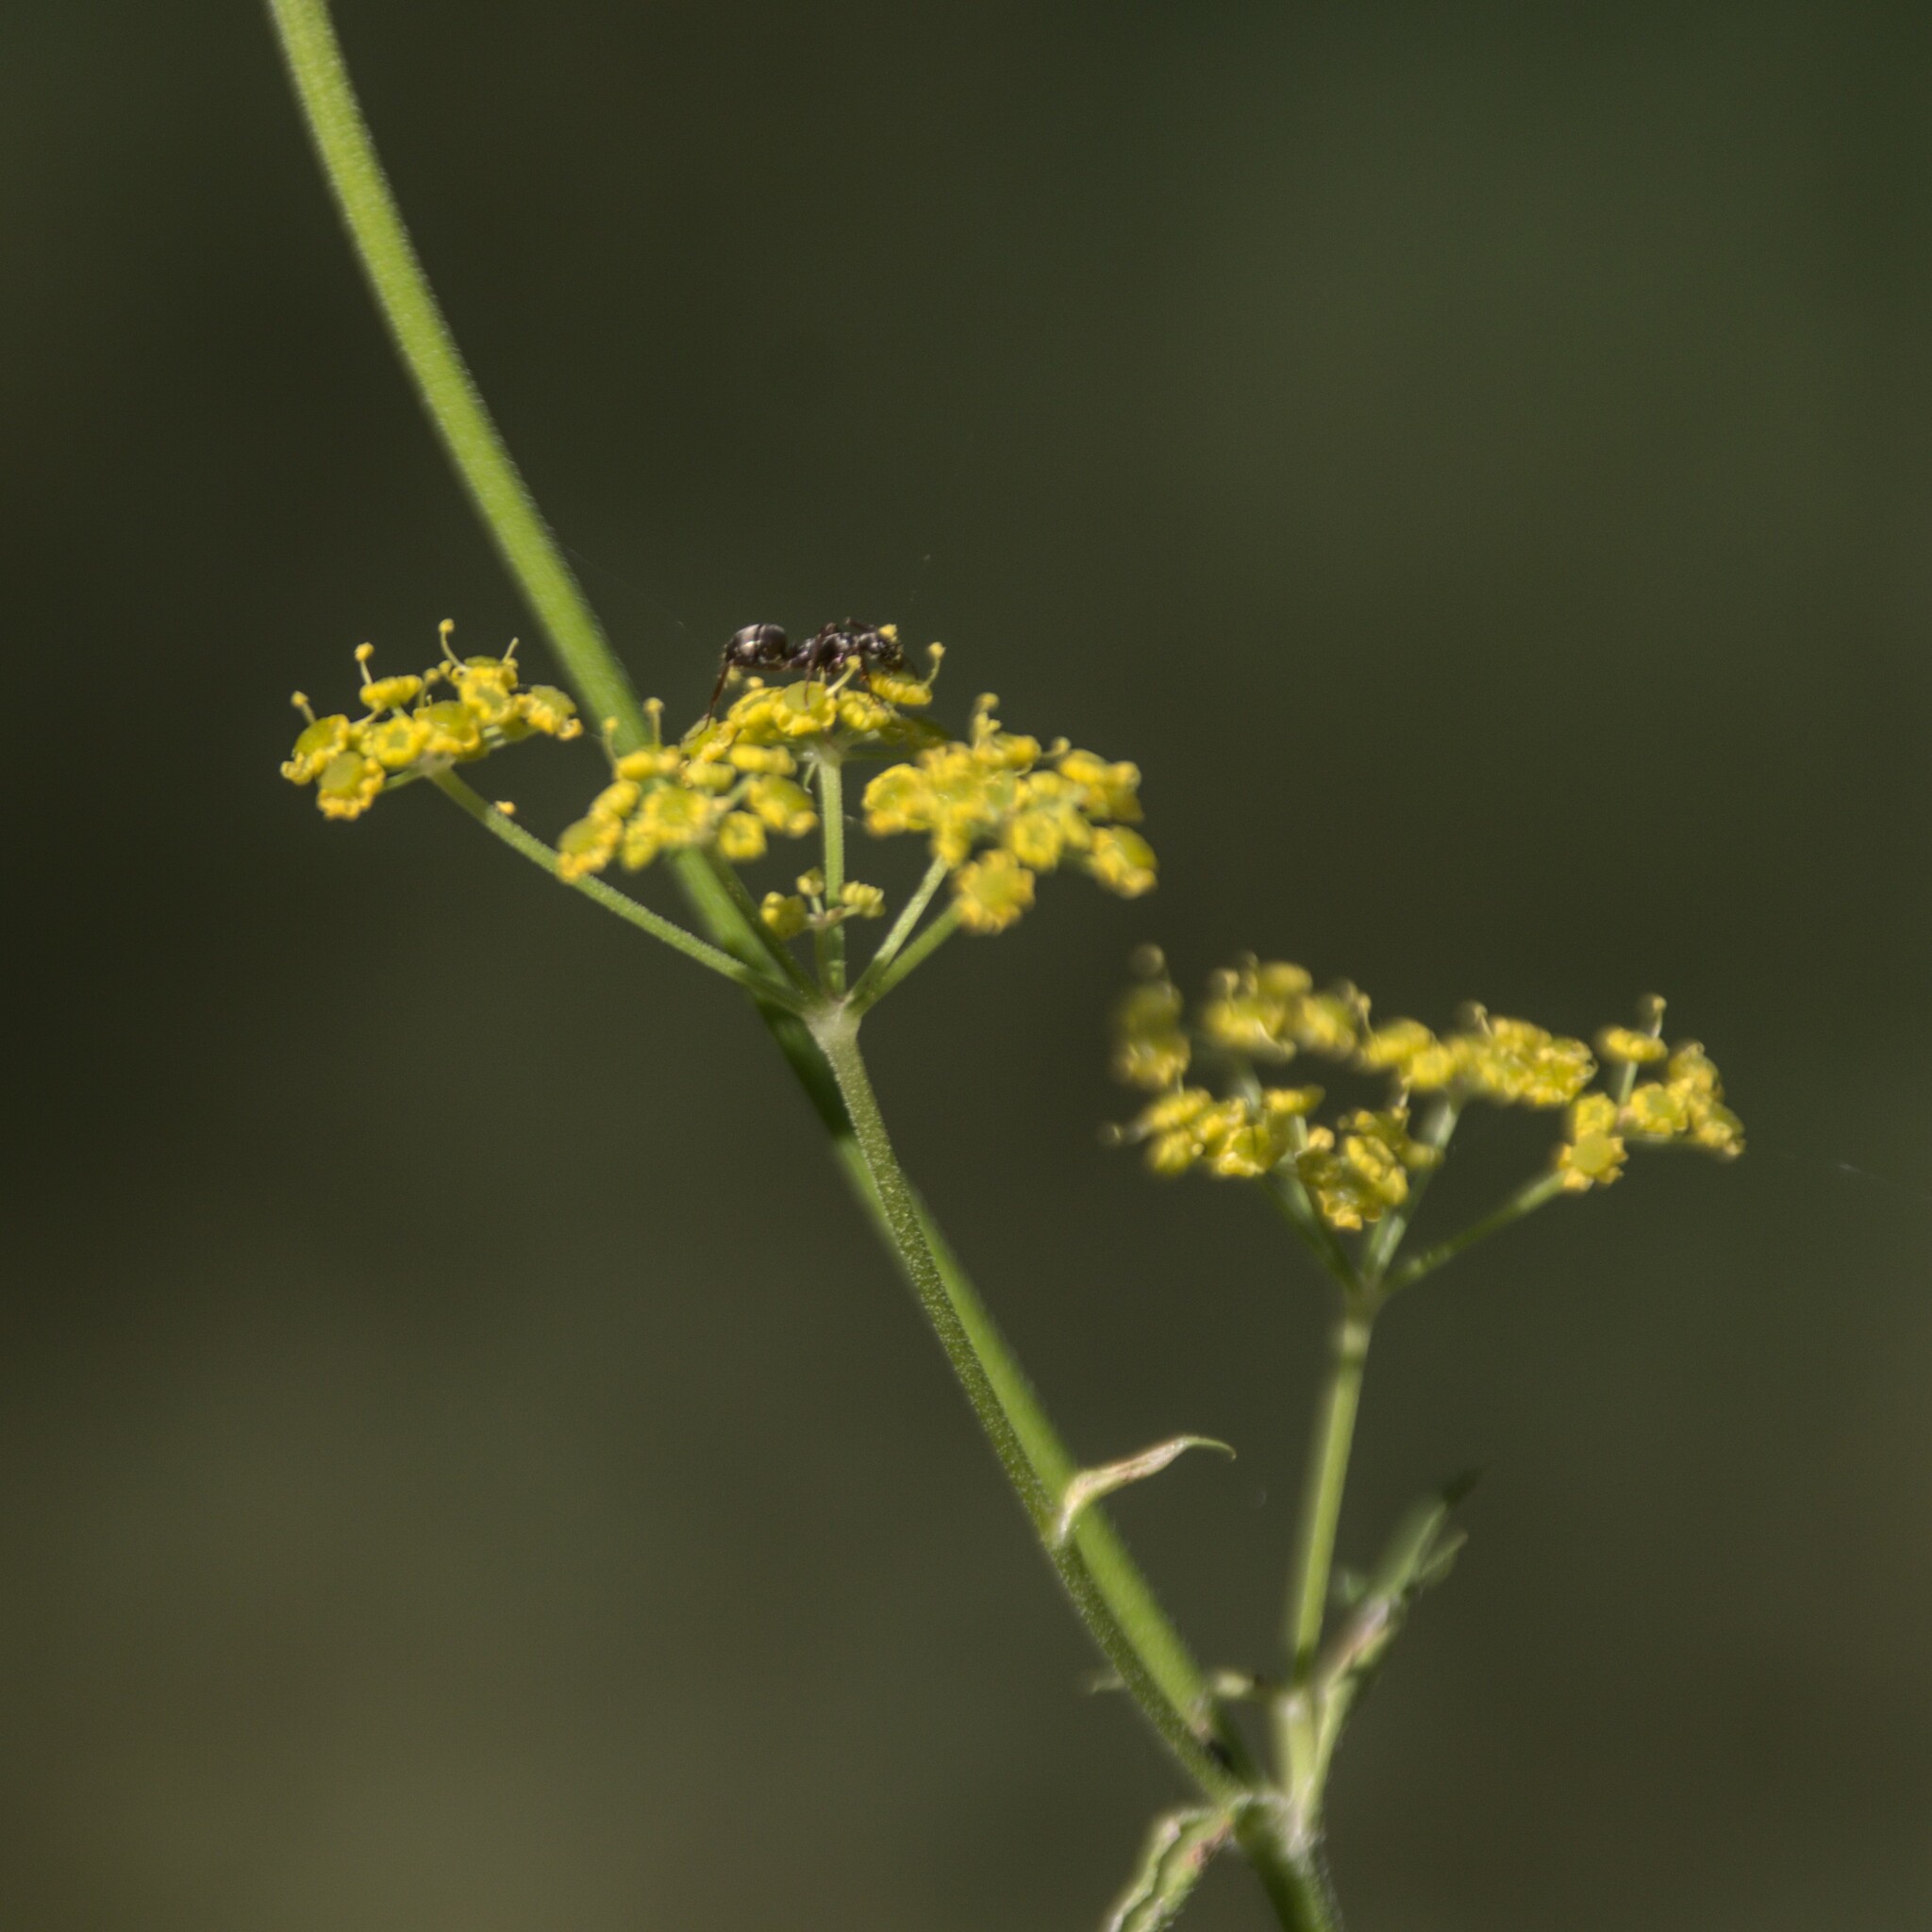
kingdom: Plantae
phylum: Tracheophyta
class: Magnoliopsida
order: Apiales
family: Apiaceae
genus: Pastinaca
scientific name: Pastinaca sativa
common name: Wild parsnip
